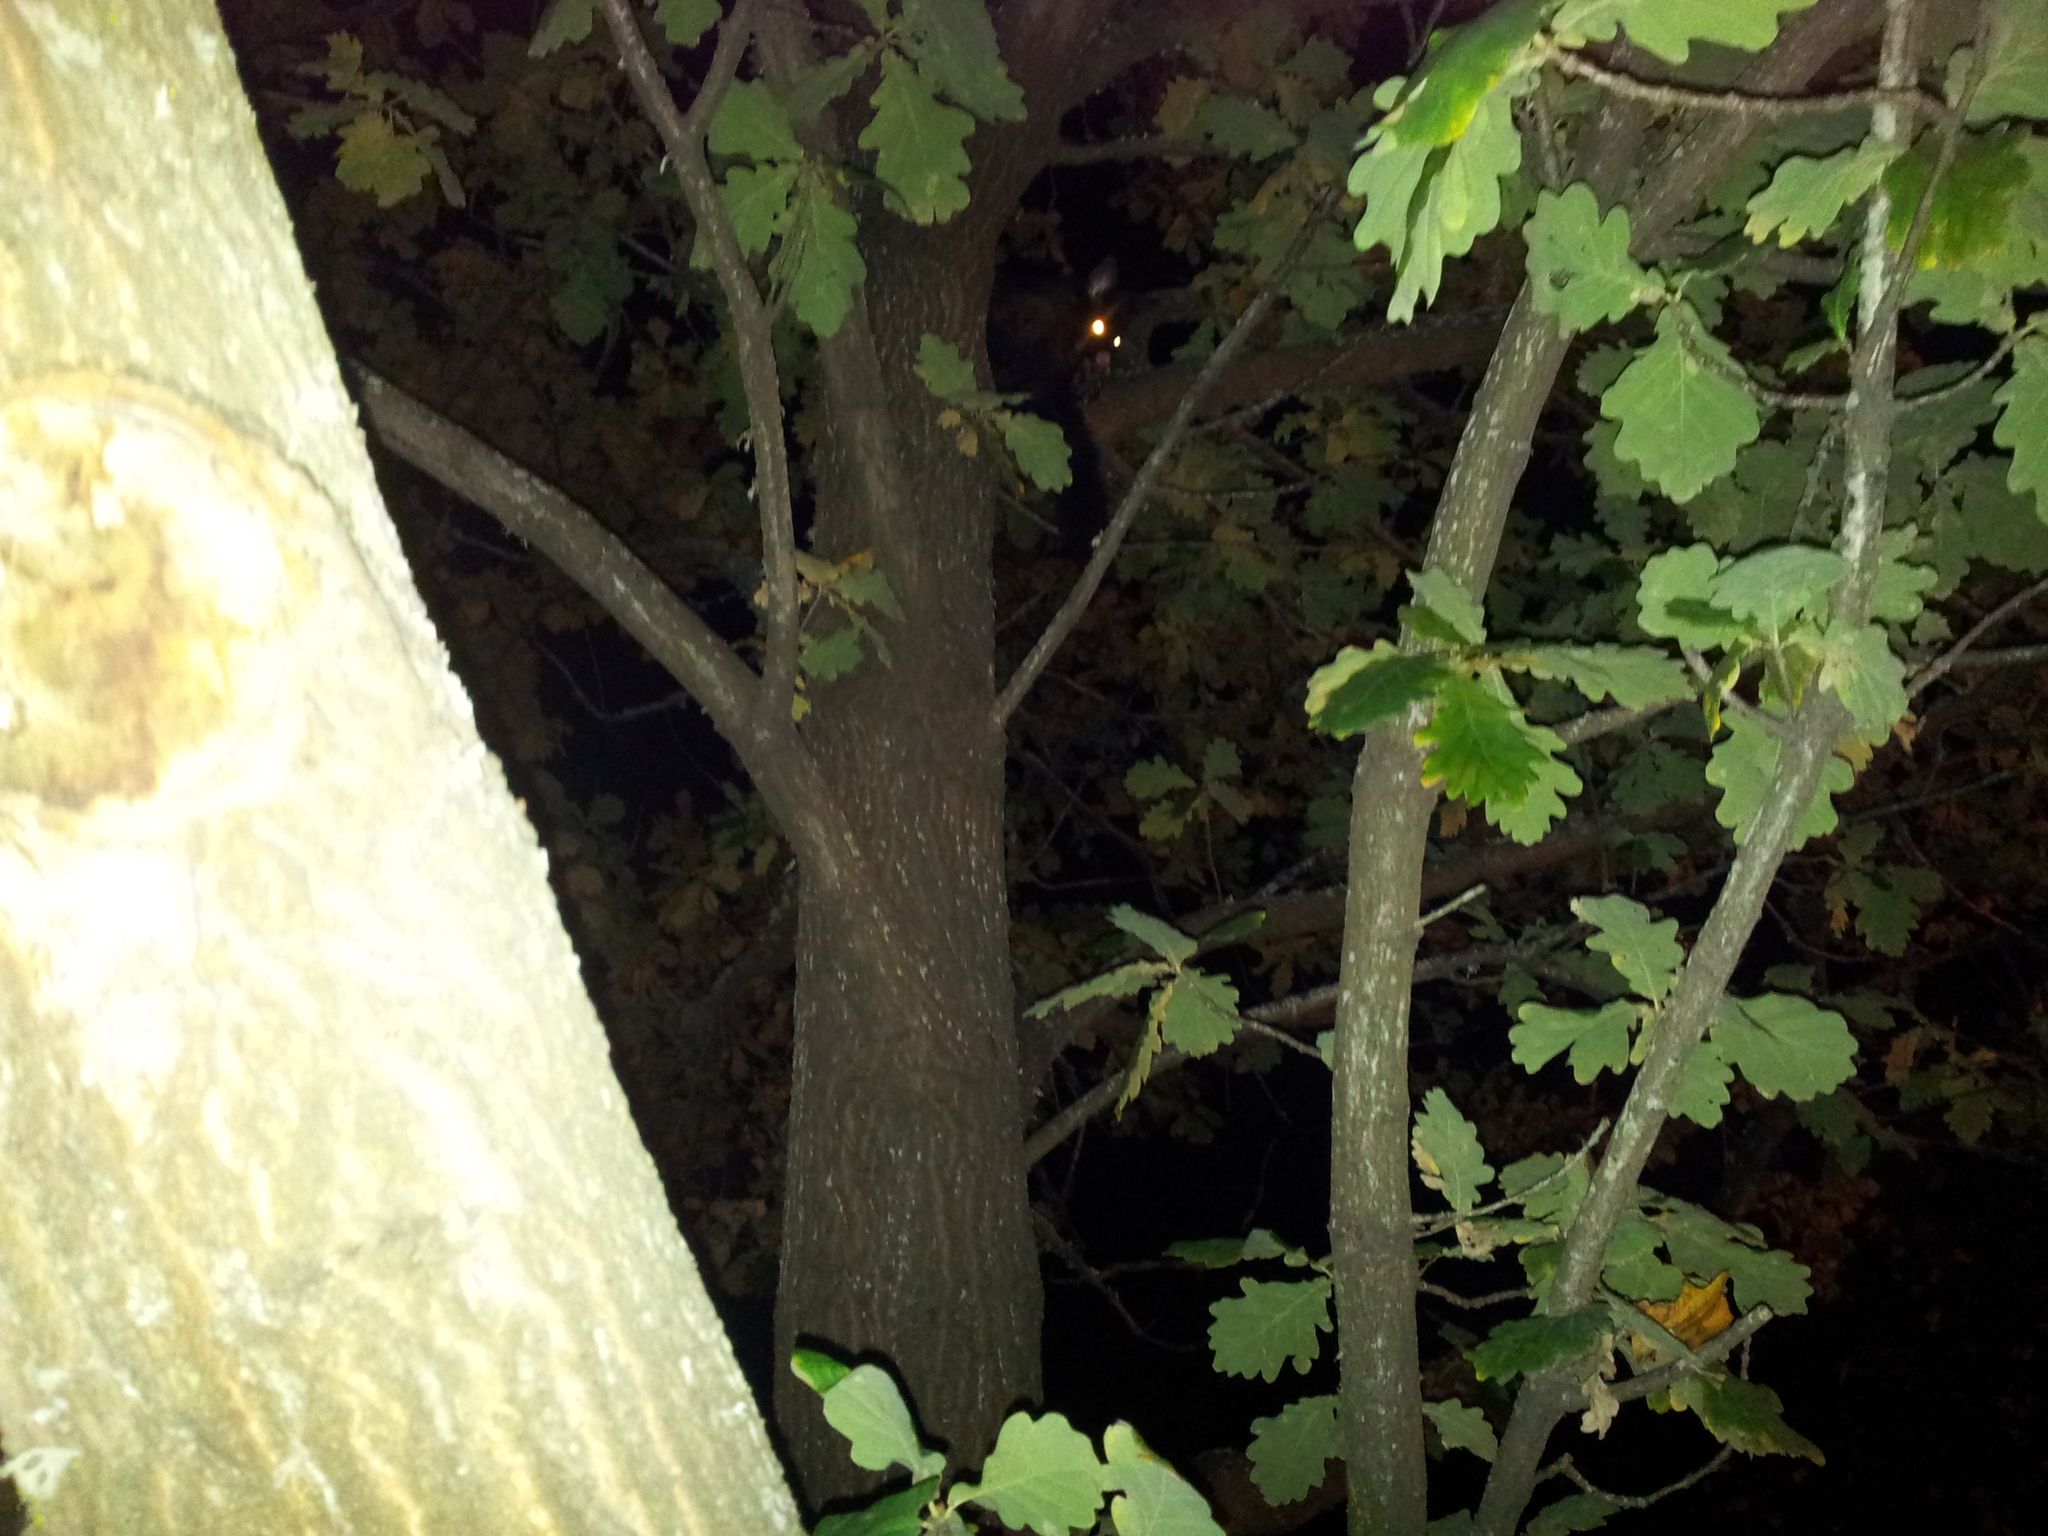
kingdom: Animalia
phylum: Chordata
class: Mammalia
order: Diprotodontia
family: Phalangeridae
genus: Trichosurus
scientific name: Trichosurus vulpecula
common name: Common brushtail
